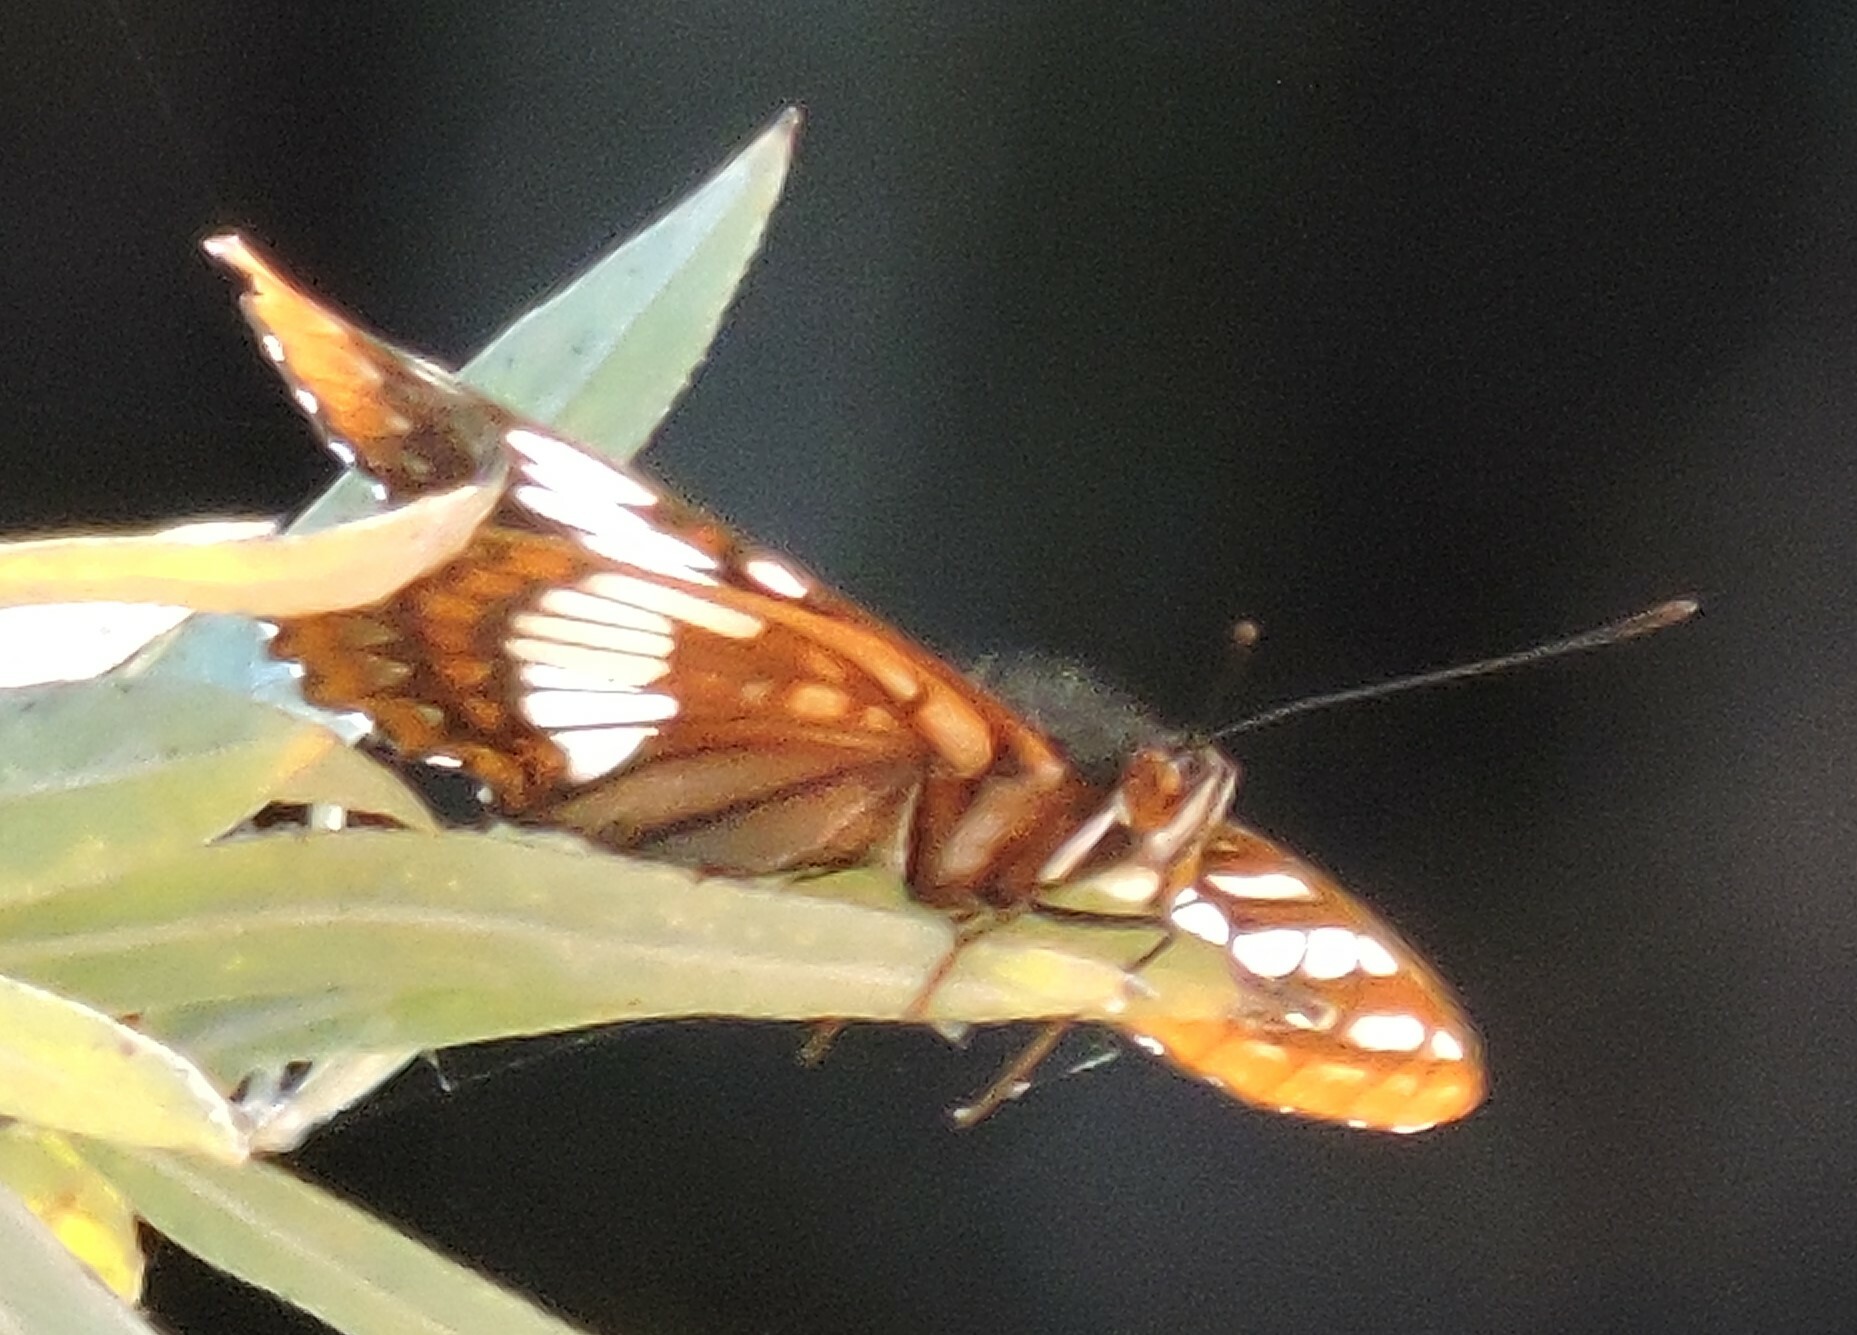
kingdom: Animalia
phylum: Arthropoda
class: Insecta
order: Lepidoptera
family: Nymphalidae
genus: Limenitis
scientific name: Limenitis lorquini
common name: Lorquin's admiral
